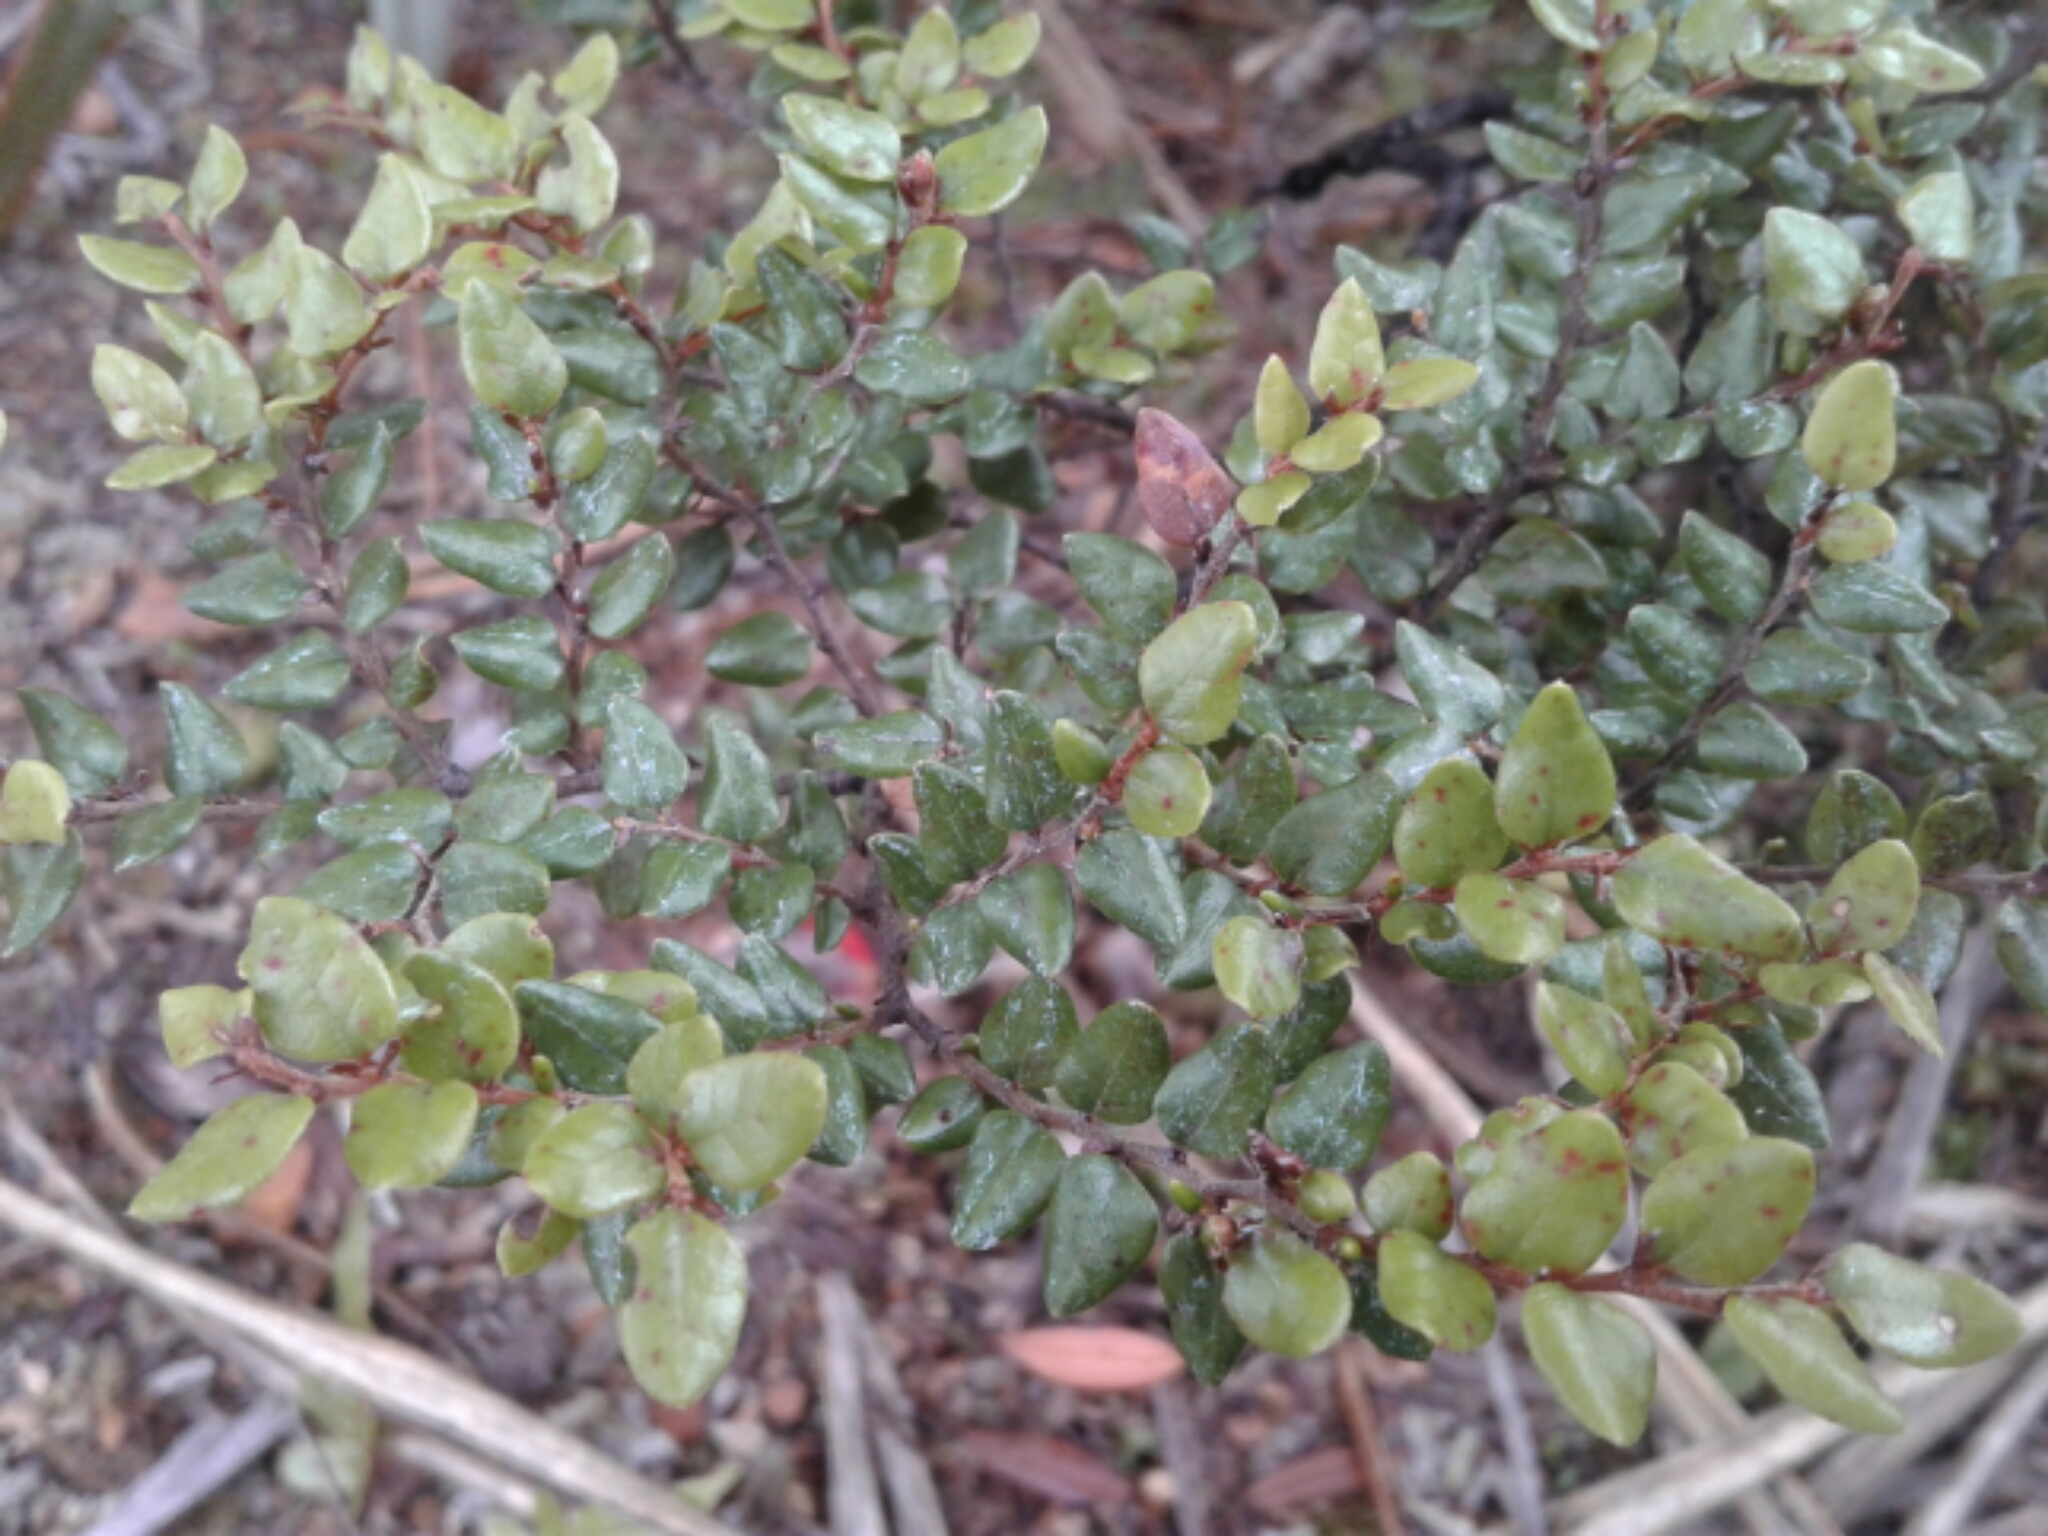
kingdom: Plantae
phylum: Tracheophyta
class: Magnoliopsida
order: Fagales
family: Nothofagaceae
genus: Nothofagus
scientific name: Nothofagus cliffortioides
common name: Mountain beech
